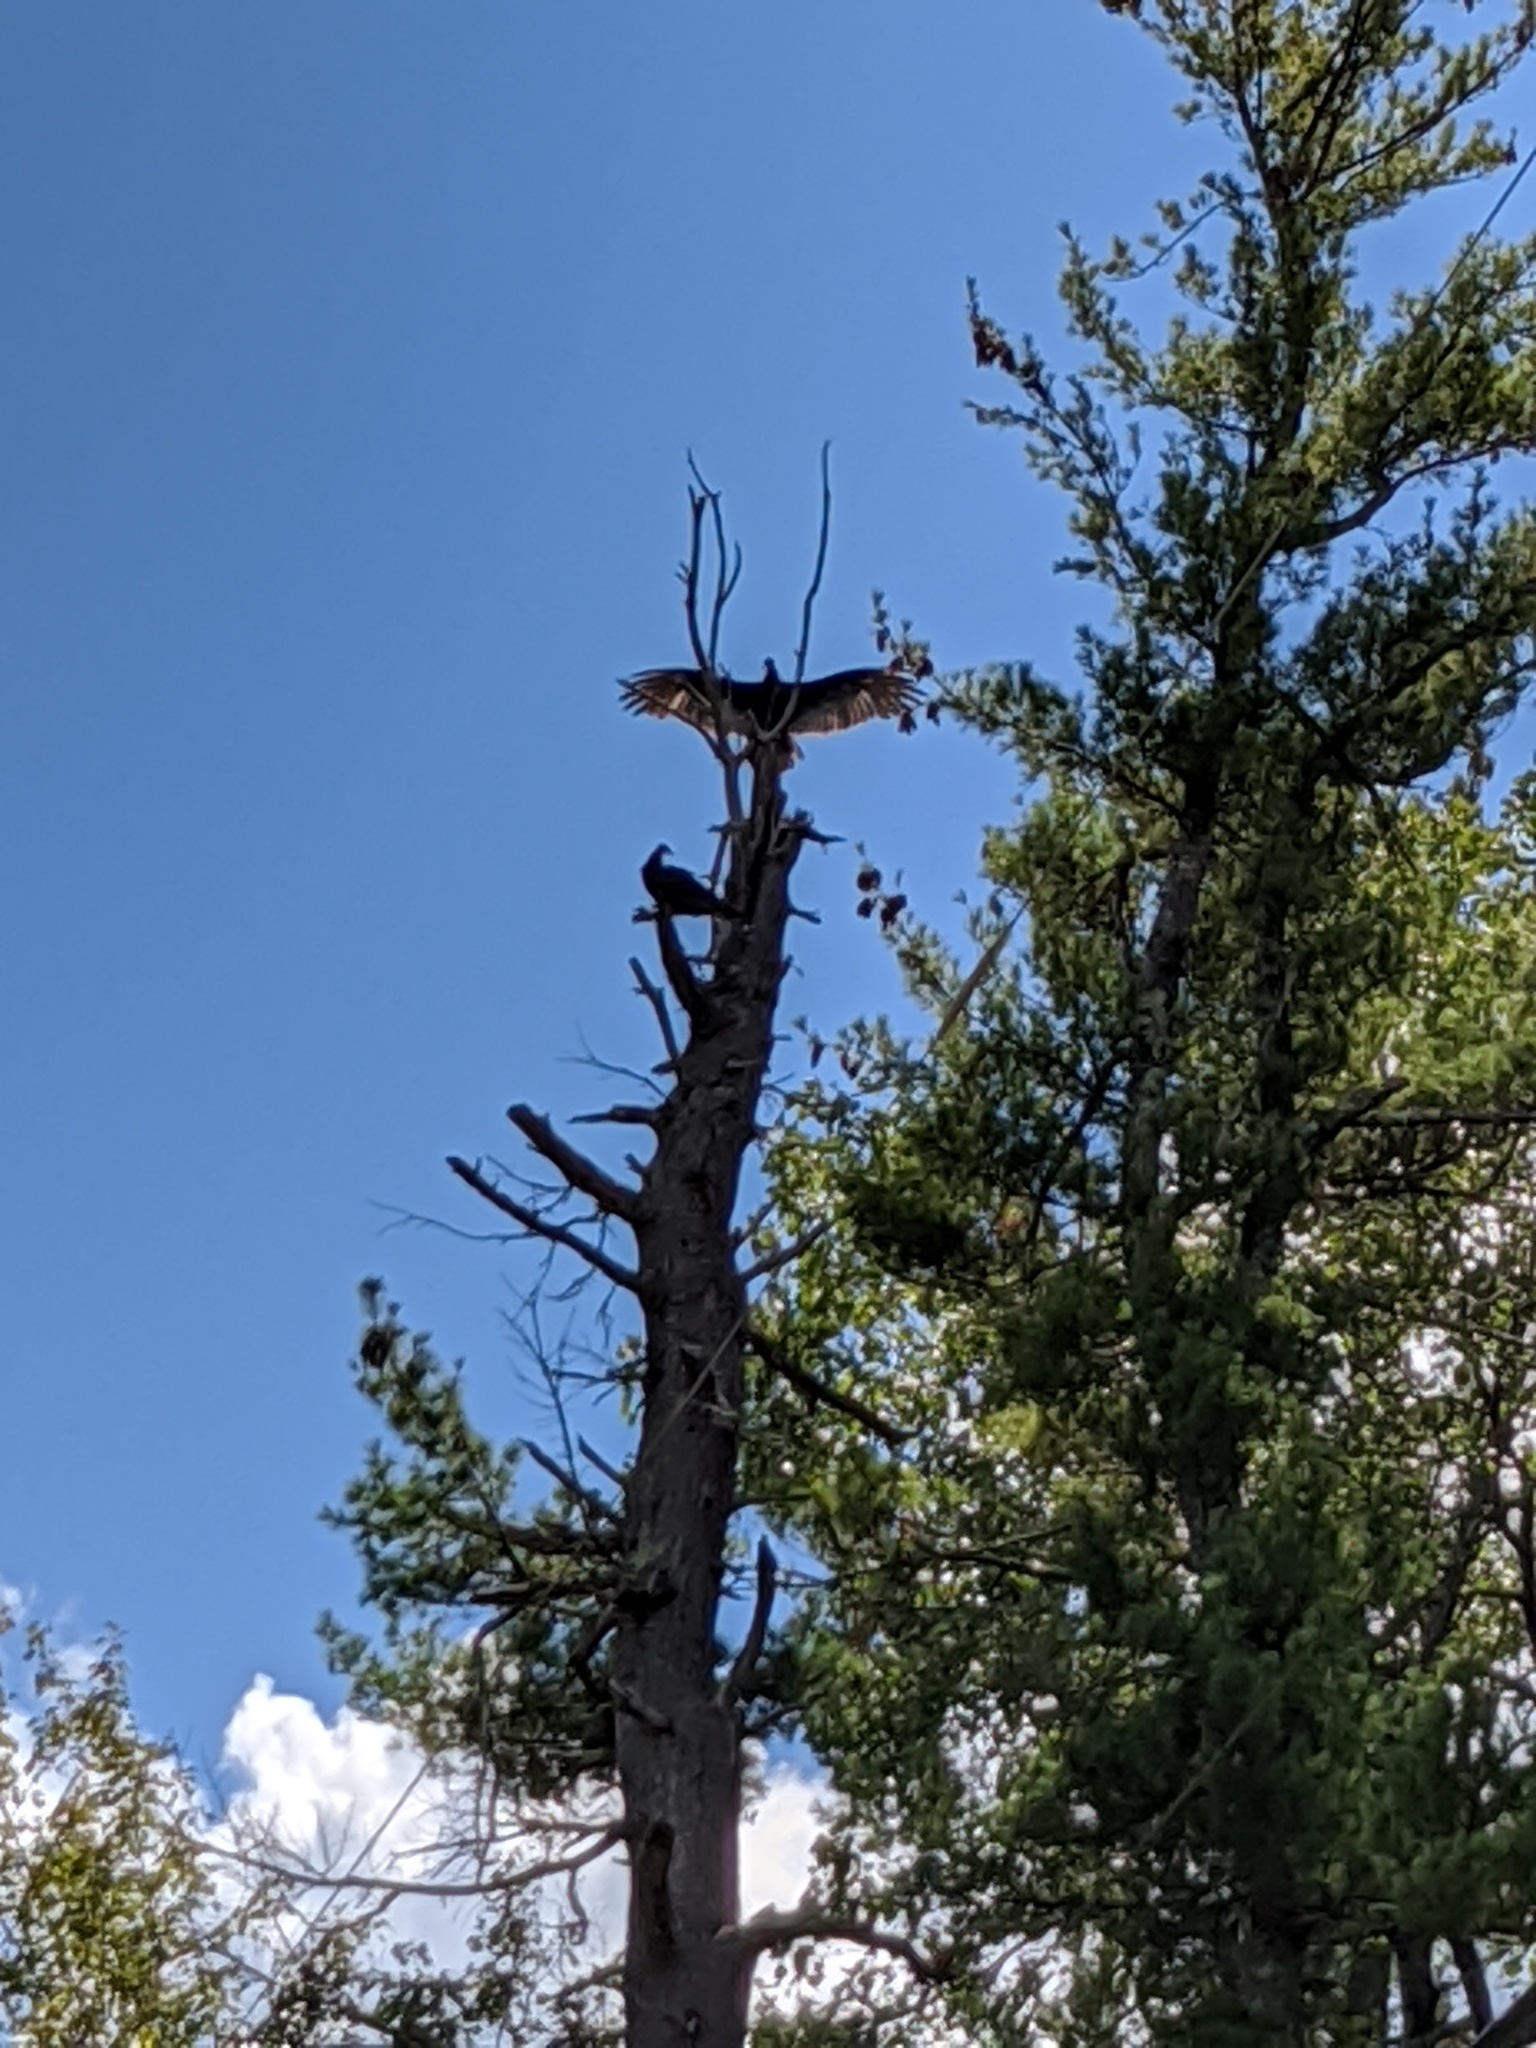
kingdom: Animalia
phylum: Chordata
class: Aves
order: Accipitriformes
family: Cathartidae
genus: Cathartes
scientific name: Cathartes aura
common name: Turkey vulture
